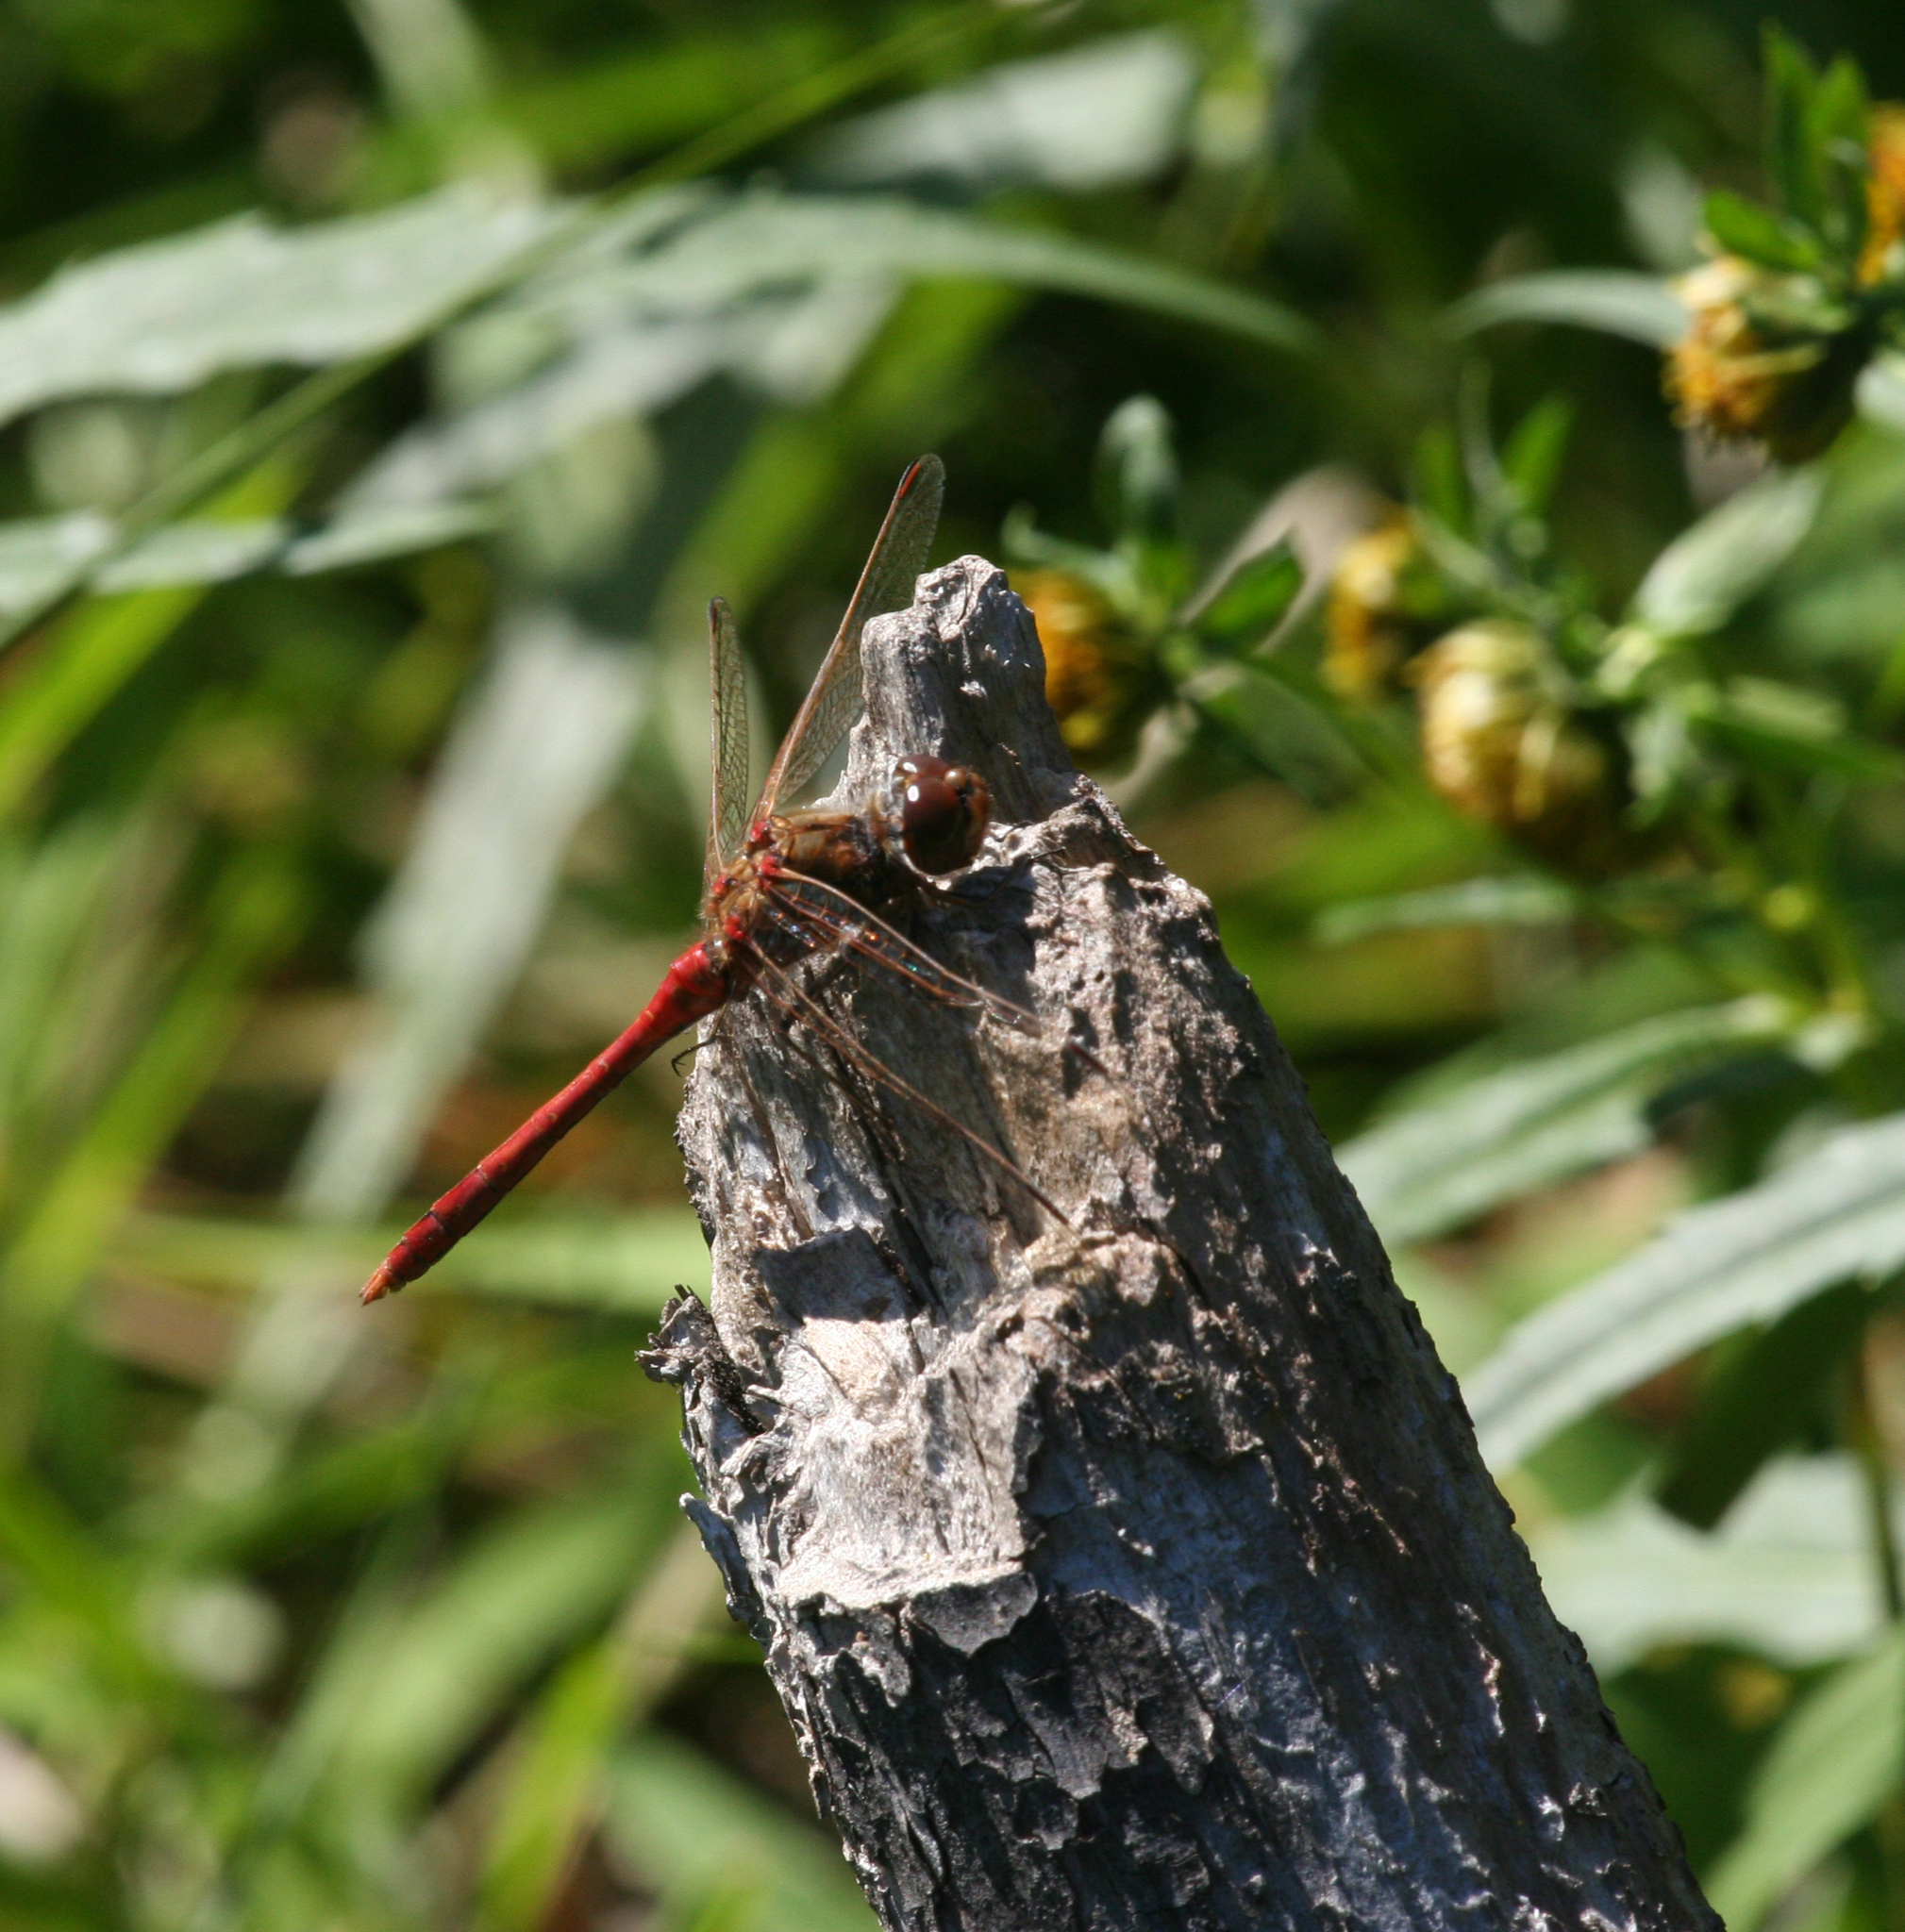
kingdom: Animalia
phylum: Arthropoda
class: Insecta
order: Odonata
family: Libellulidae
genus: Sympetrum
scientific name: Sympetrum vulgatum
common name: Vagrant darter
